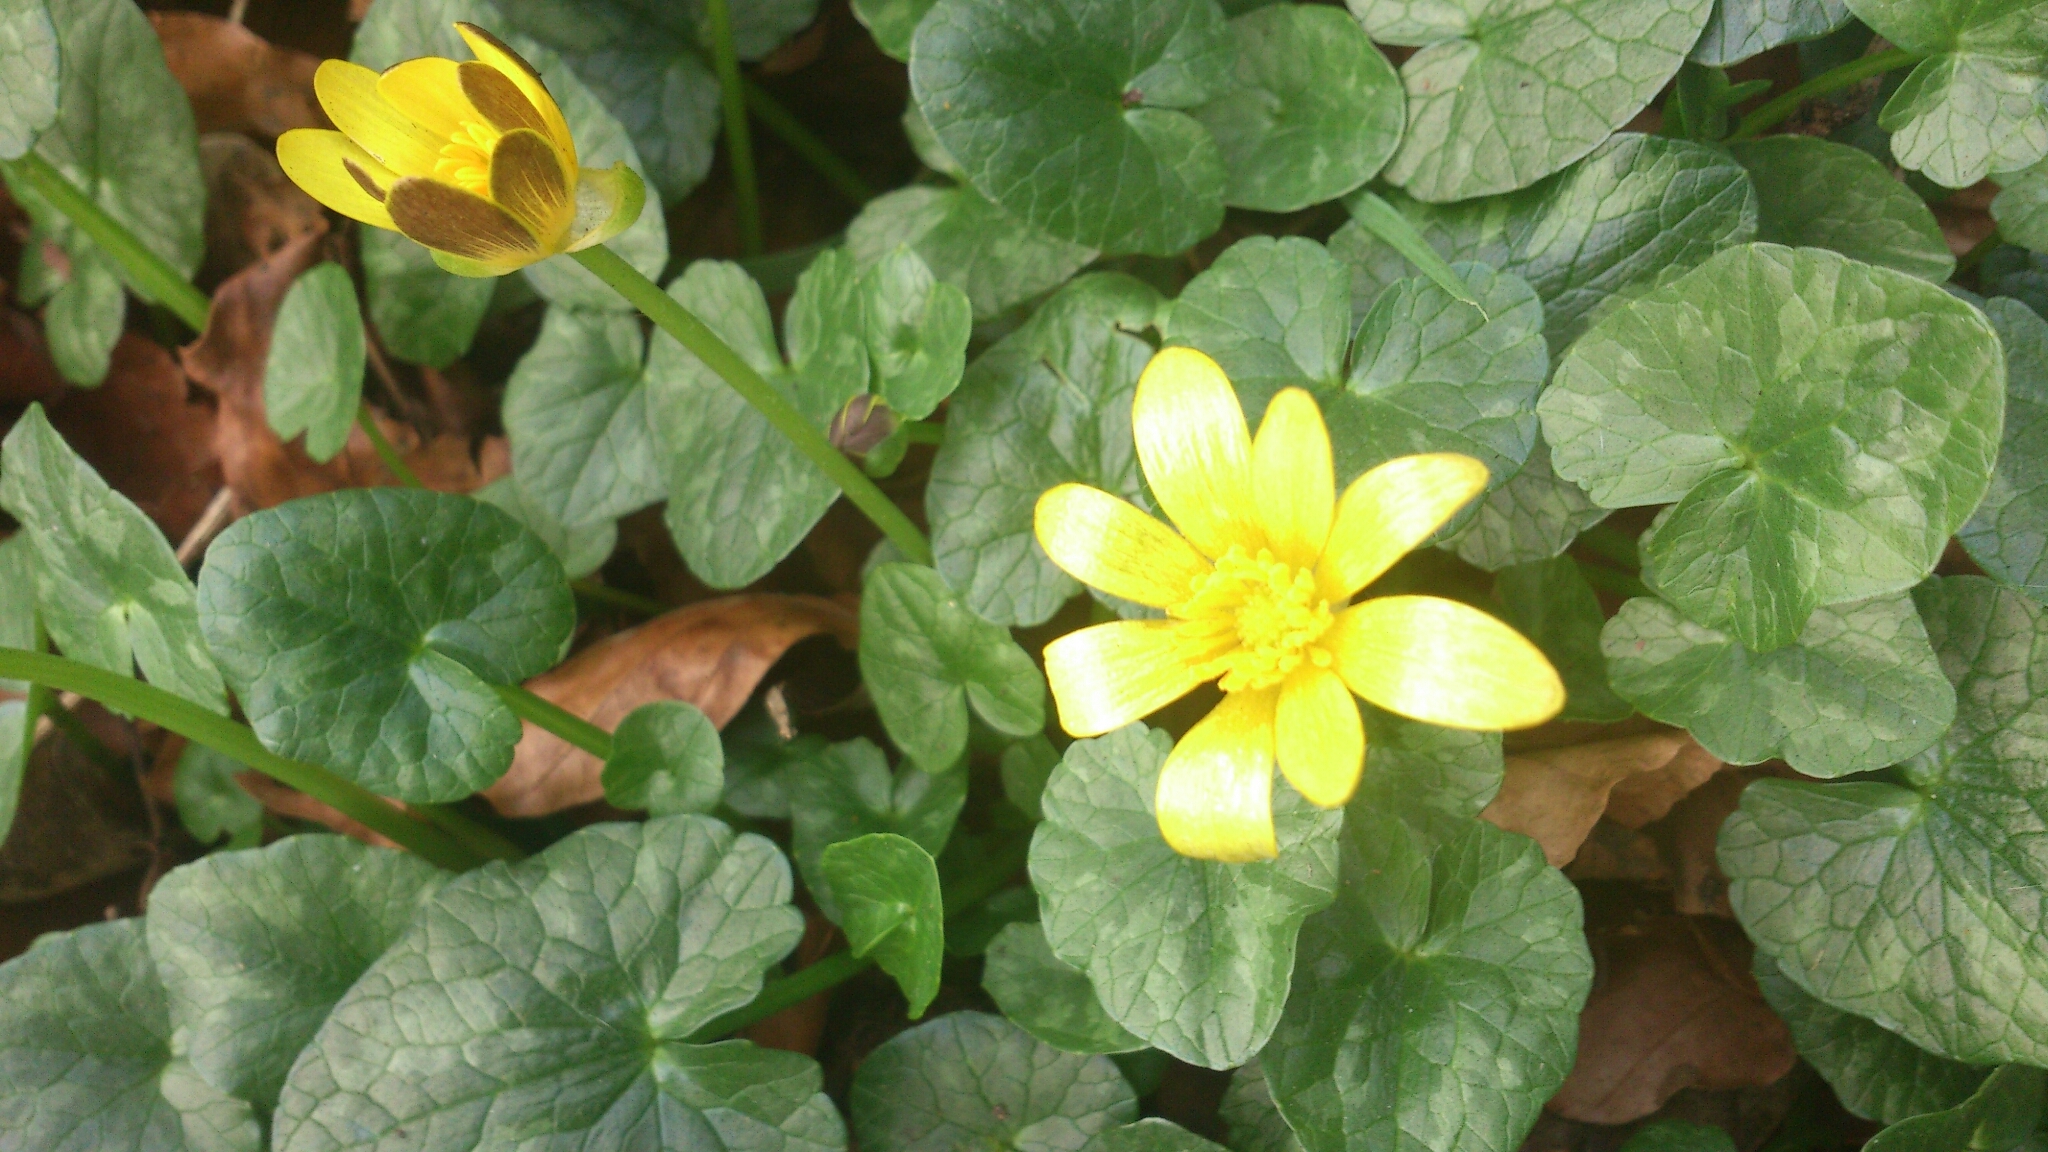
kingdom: Plantae
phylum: Tracheophyta
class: Magnoliopsida
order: Ranunculales
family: Ranunculaceae
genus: Ficaria
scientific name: Ficaria verna
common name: Lesser celandine
